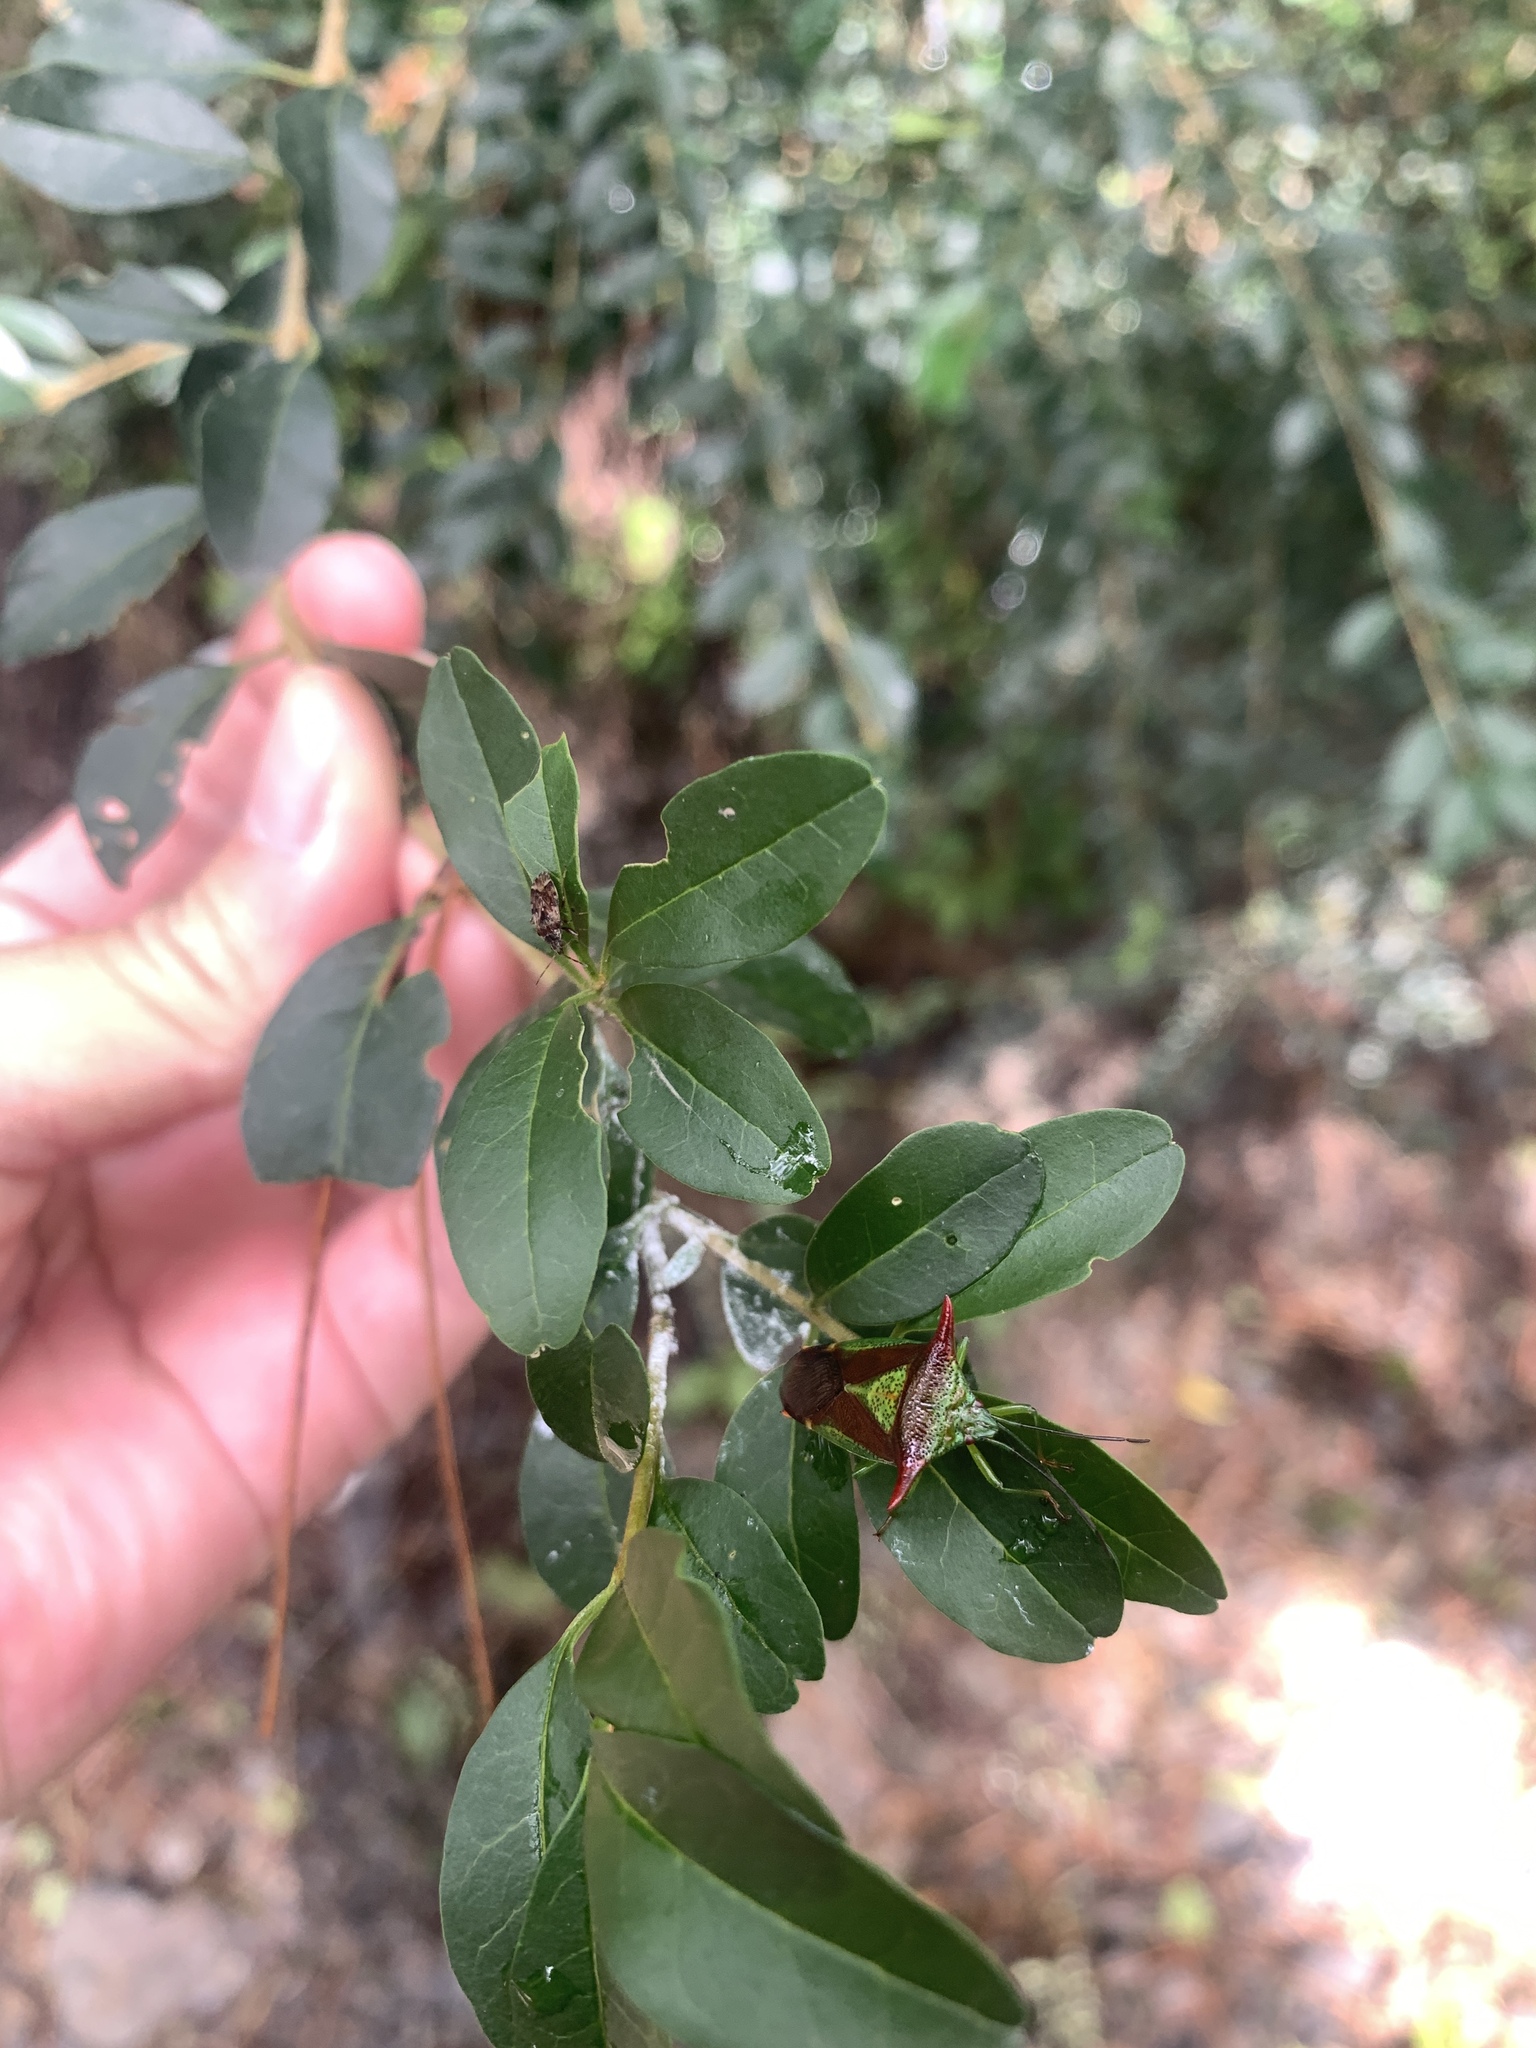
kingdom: Animalia
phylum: Arthropoda
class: Insecta
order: Hemiptera
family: Acanthosomatidae
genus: Acanthosoma
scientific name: Acanthosoma haemorrhoidale
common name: Hawthorn shieldbug
